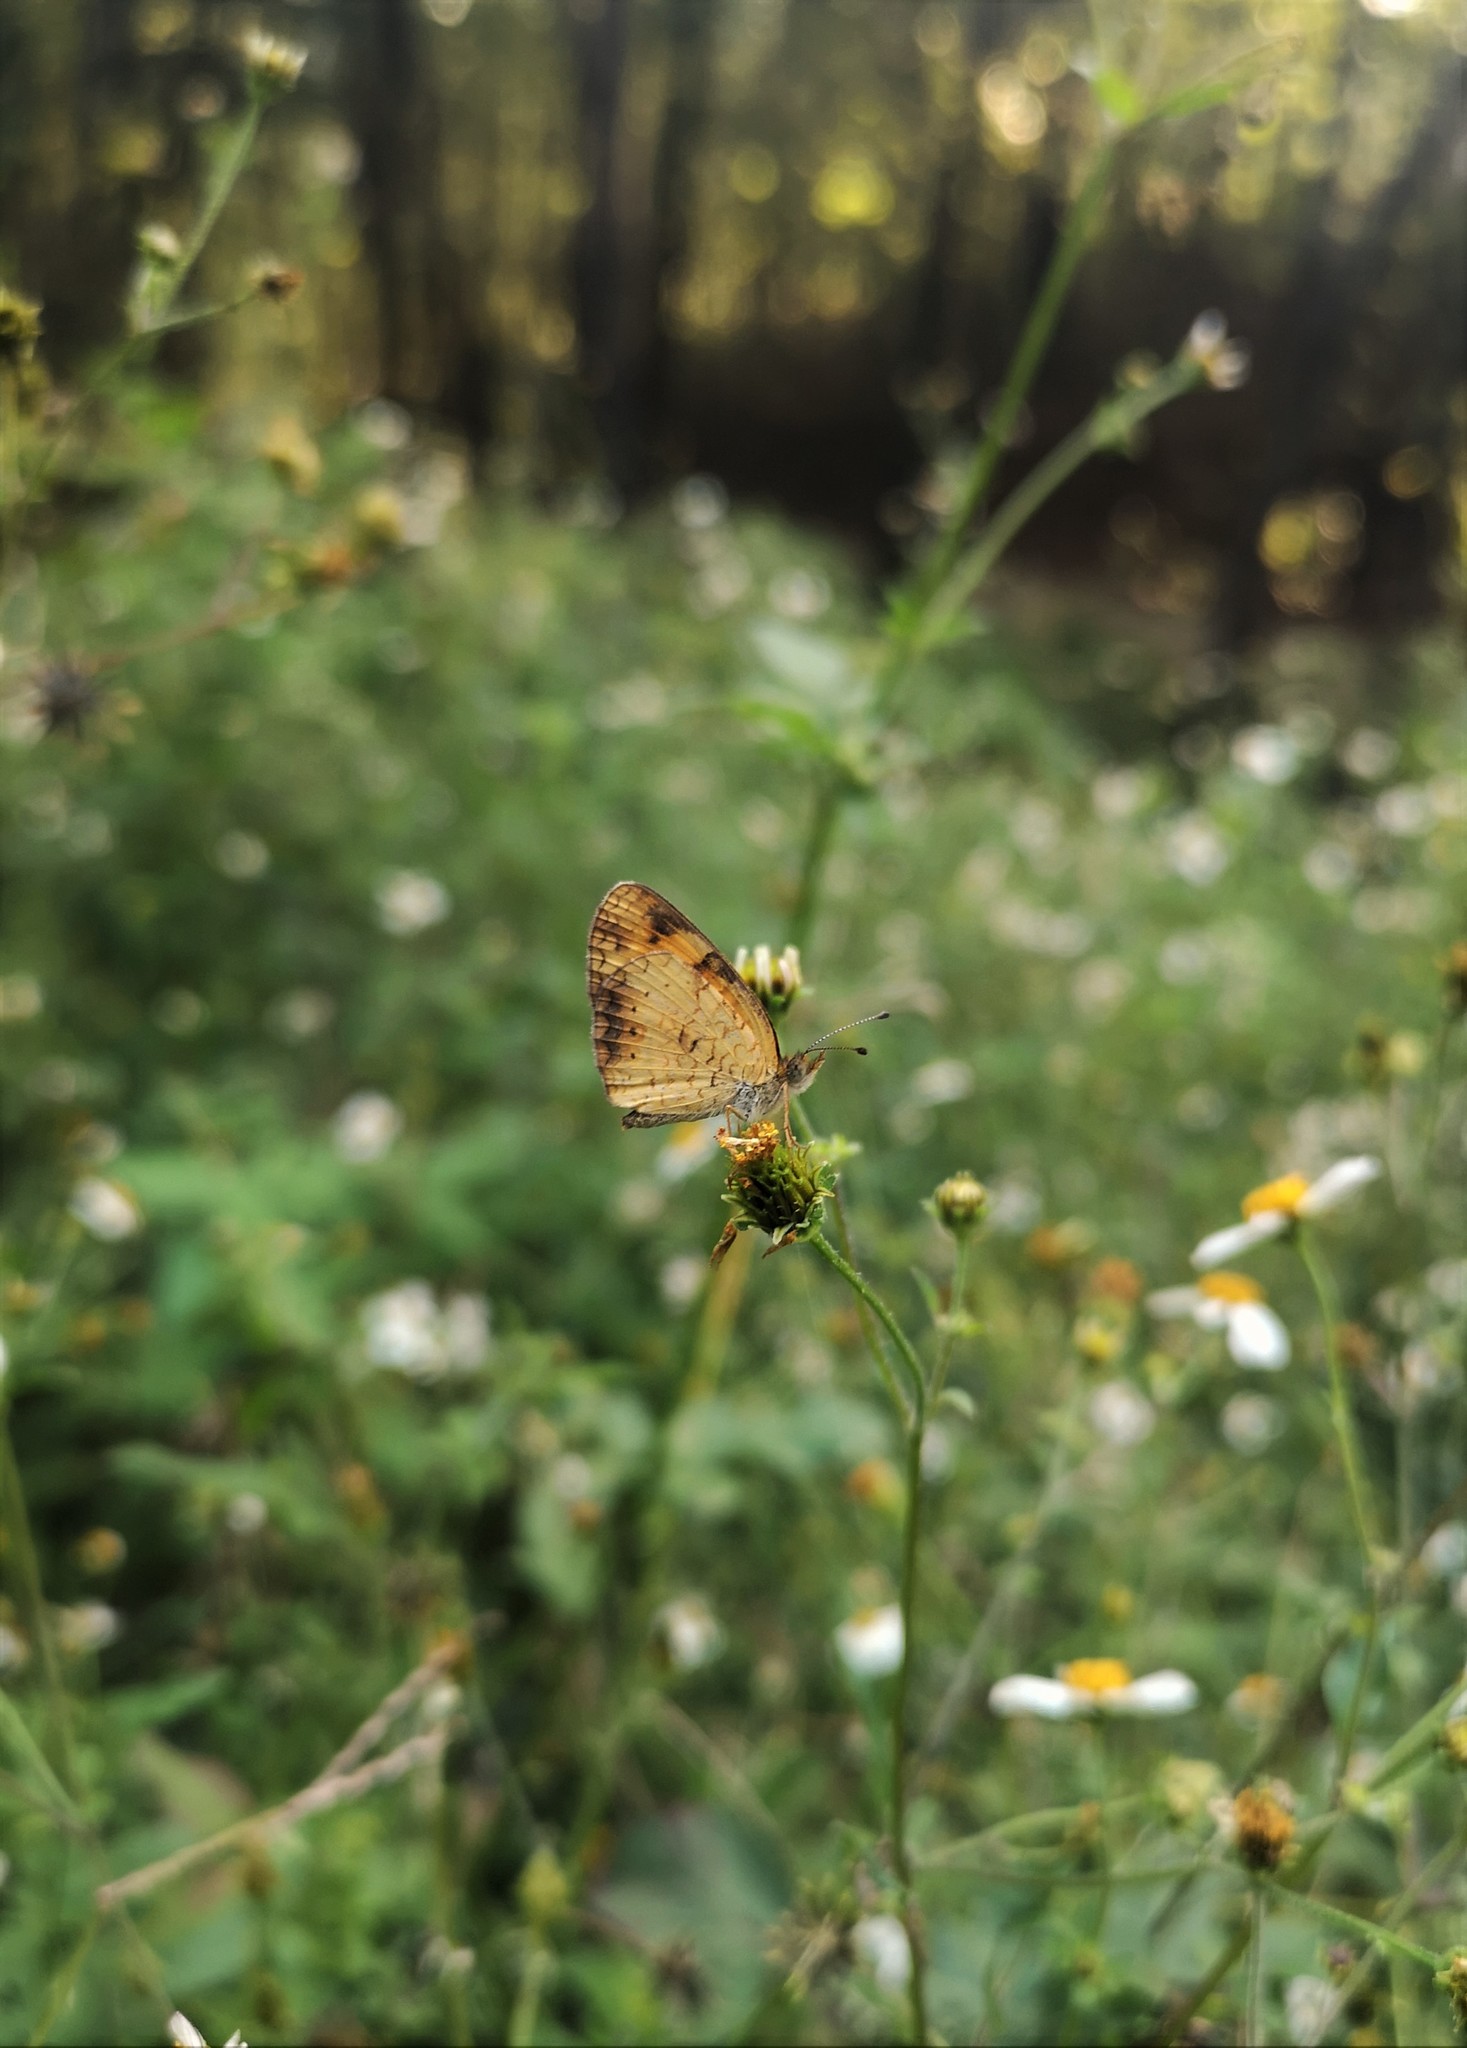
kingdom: Animalia
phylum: Arthropoda
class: Insecta
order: Lepidoptera
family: Nymphalidae
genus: Phyciodes
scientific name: Phyciodes tharos
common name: Pearl crescent
